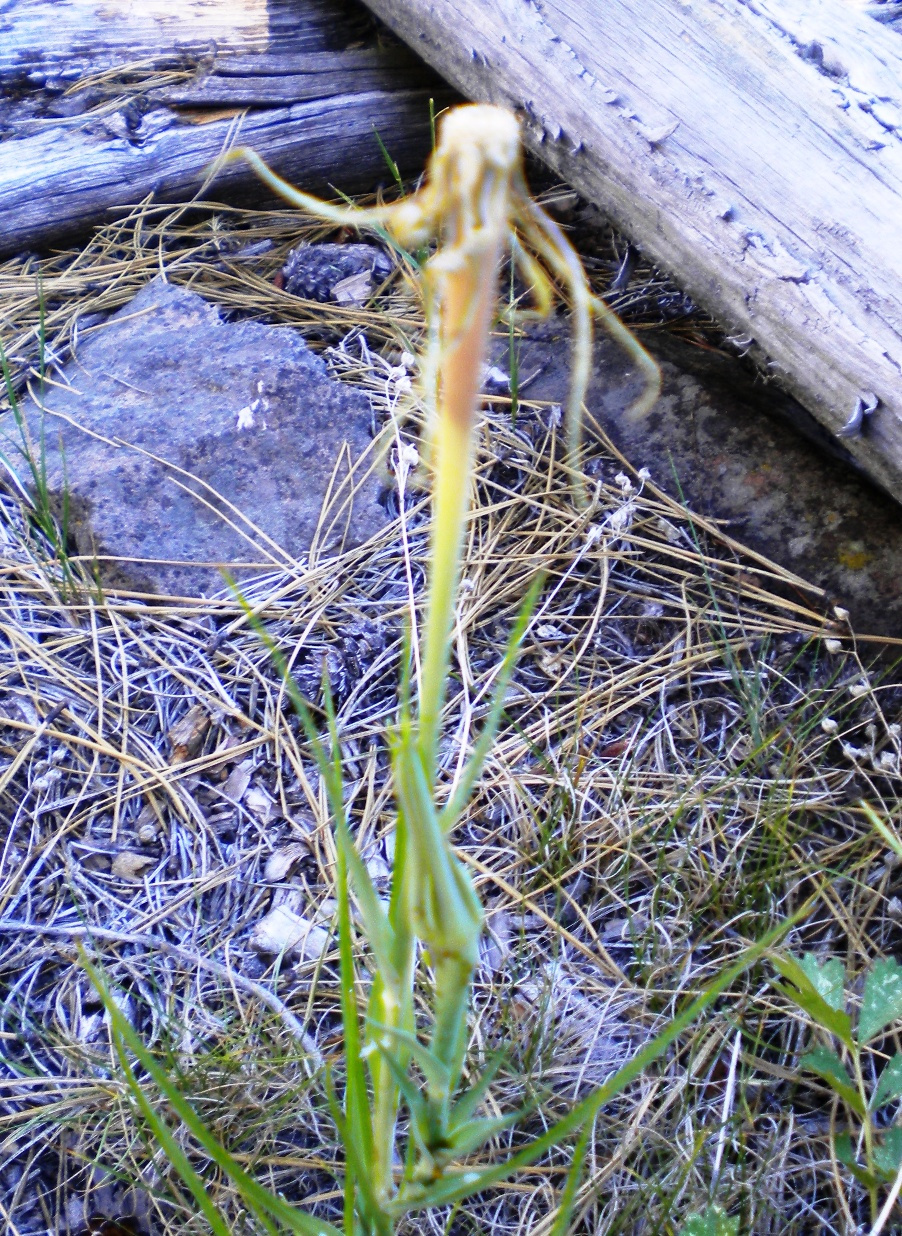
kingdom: Plantae
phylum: Tracheophyta
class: Magnoliopsida
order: Asterales
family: Asteraceae
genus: Tragopogon
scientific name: Tragopogon dubius
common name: Yellow salsify
